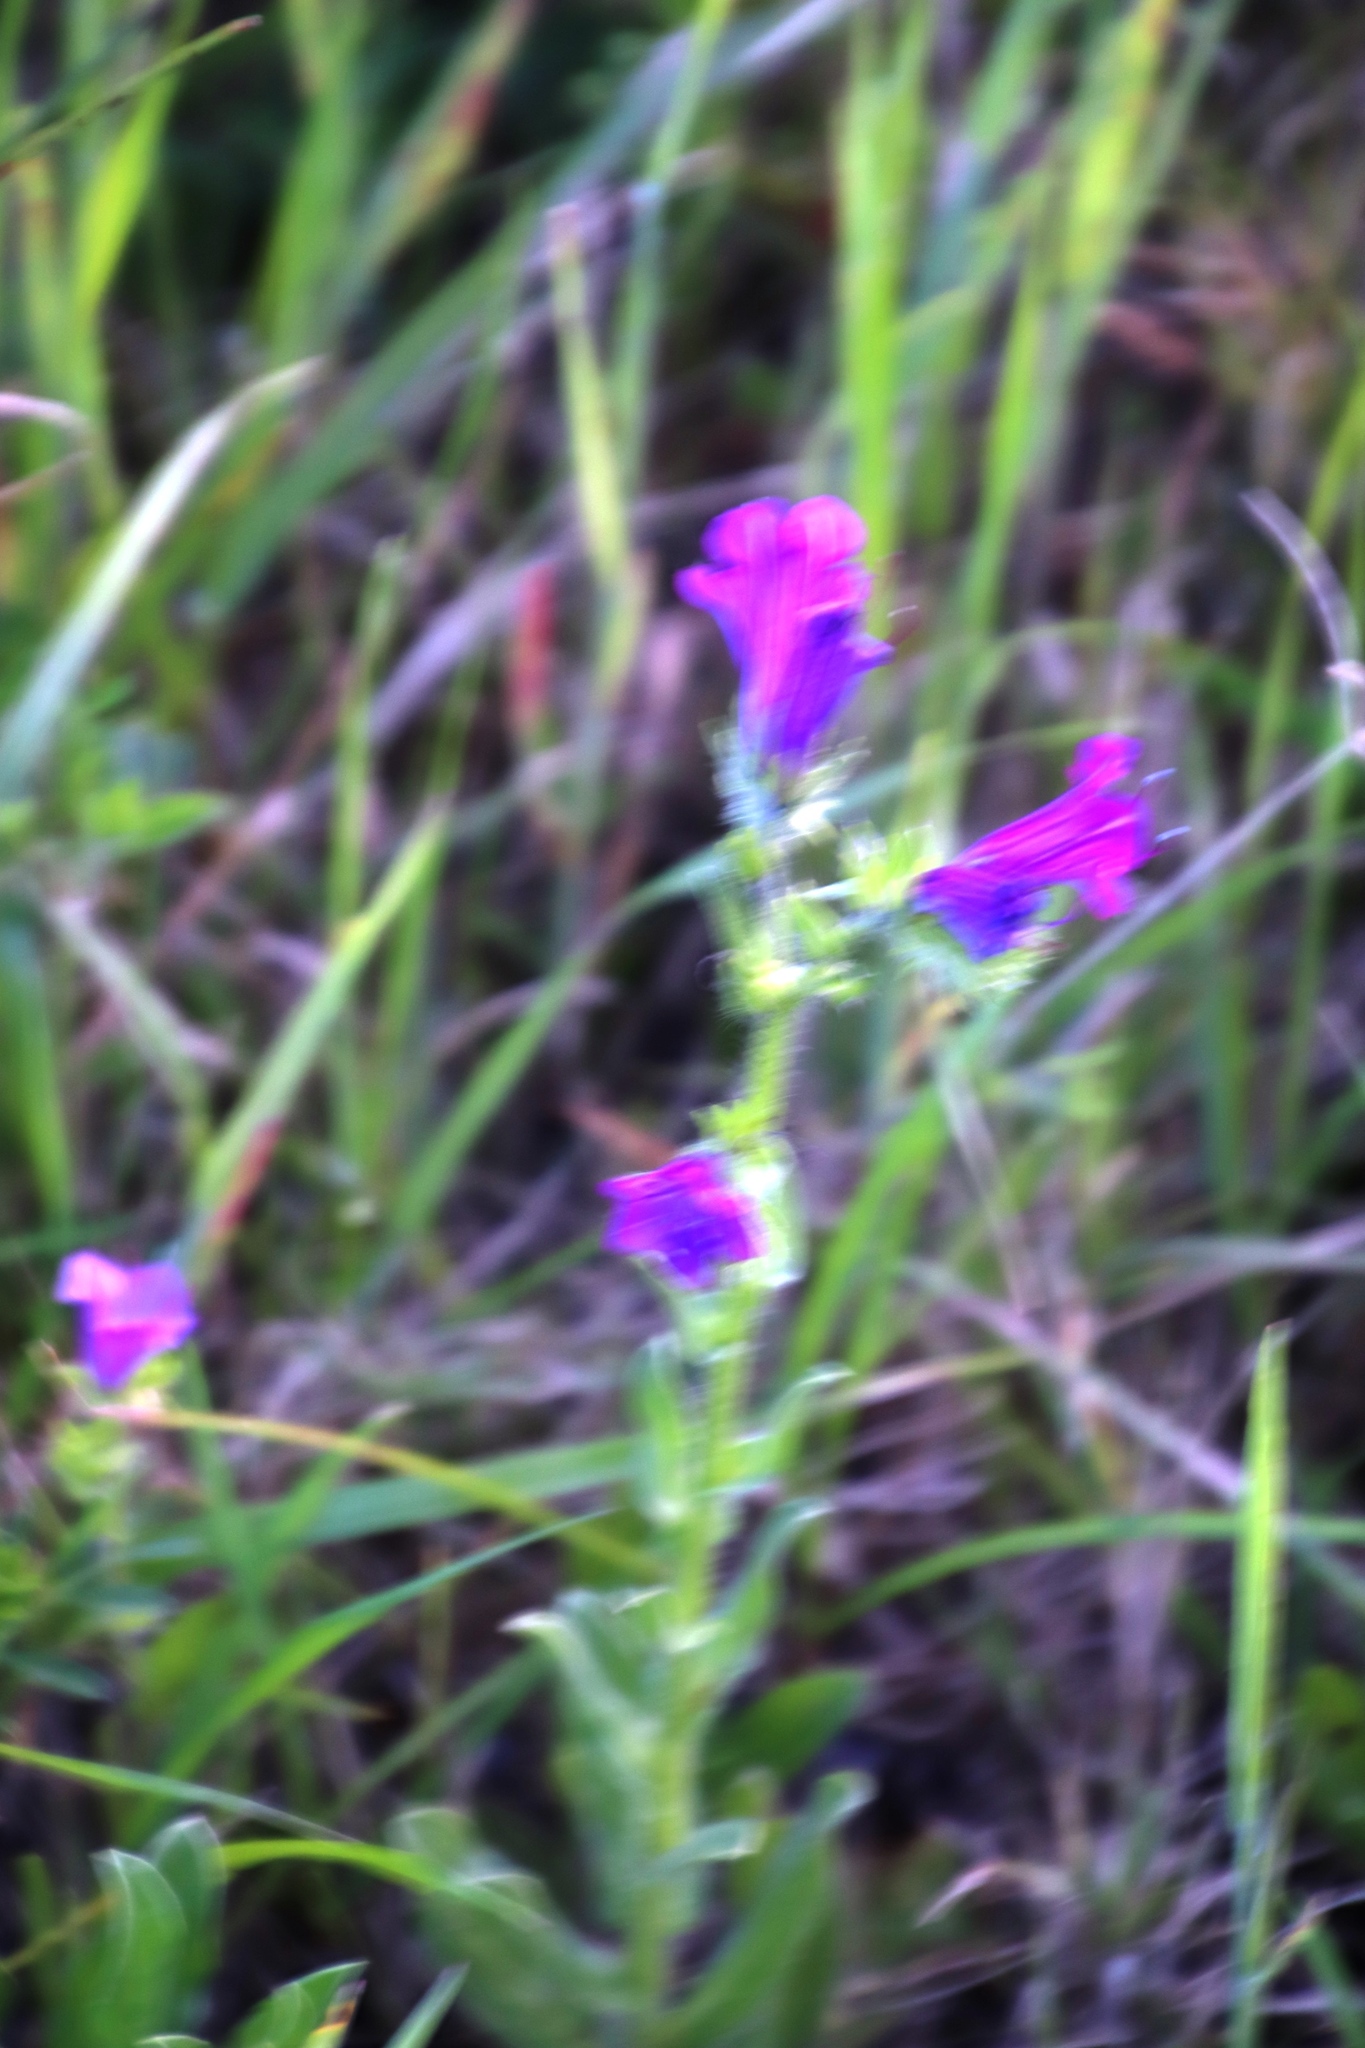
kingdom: Plantae
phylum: Tracheophyta
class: Magnoliopsida
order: Boraginales
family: Boraginaceae
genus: Echium
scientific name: Echium plantagineum
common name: Purple viper's-bugloss
